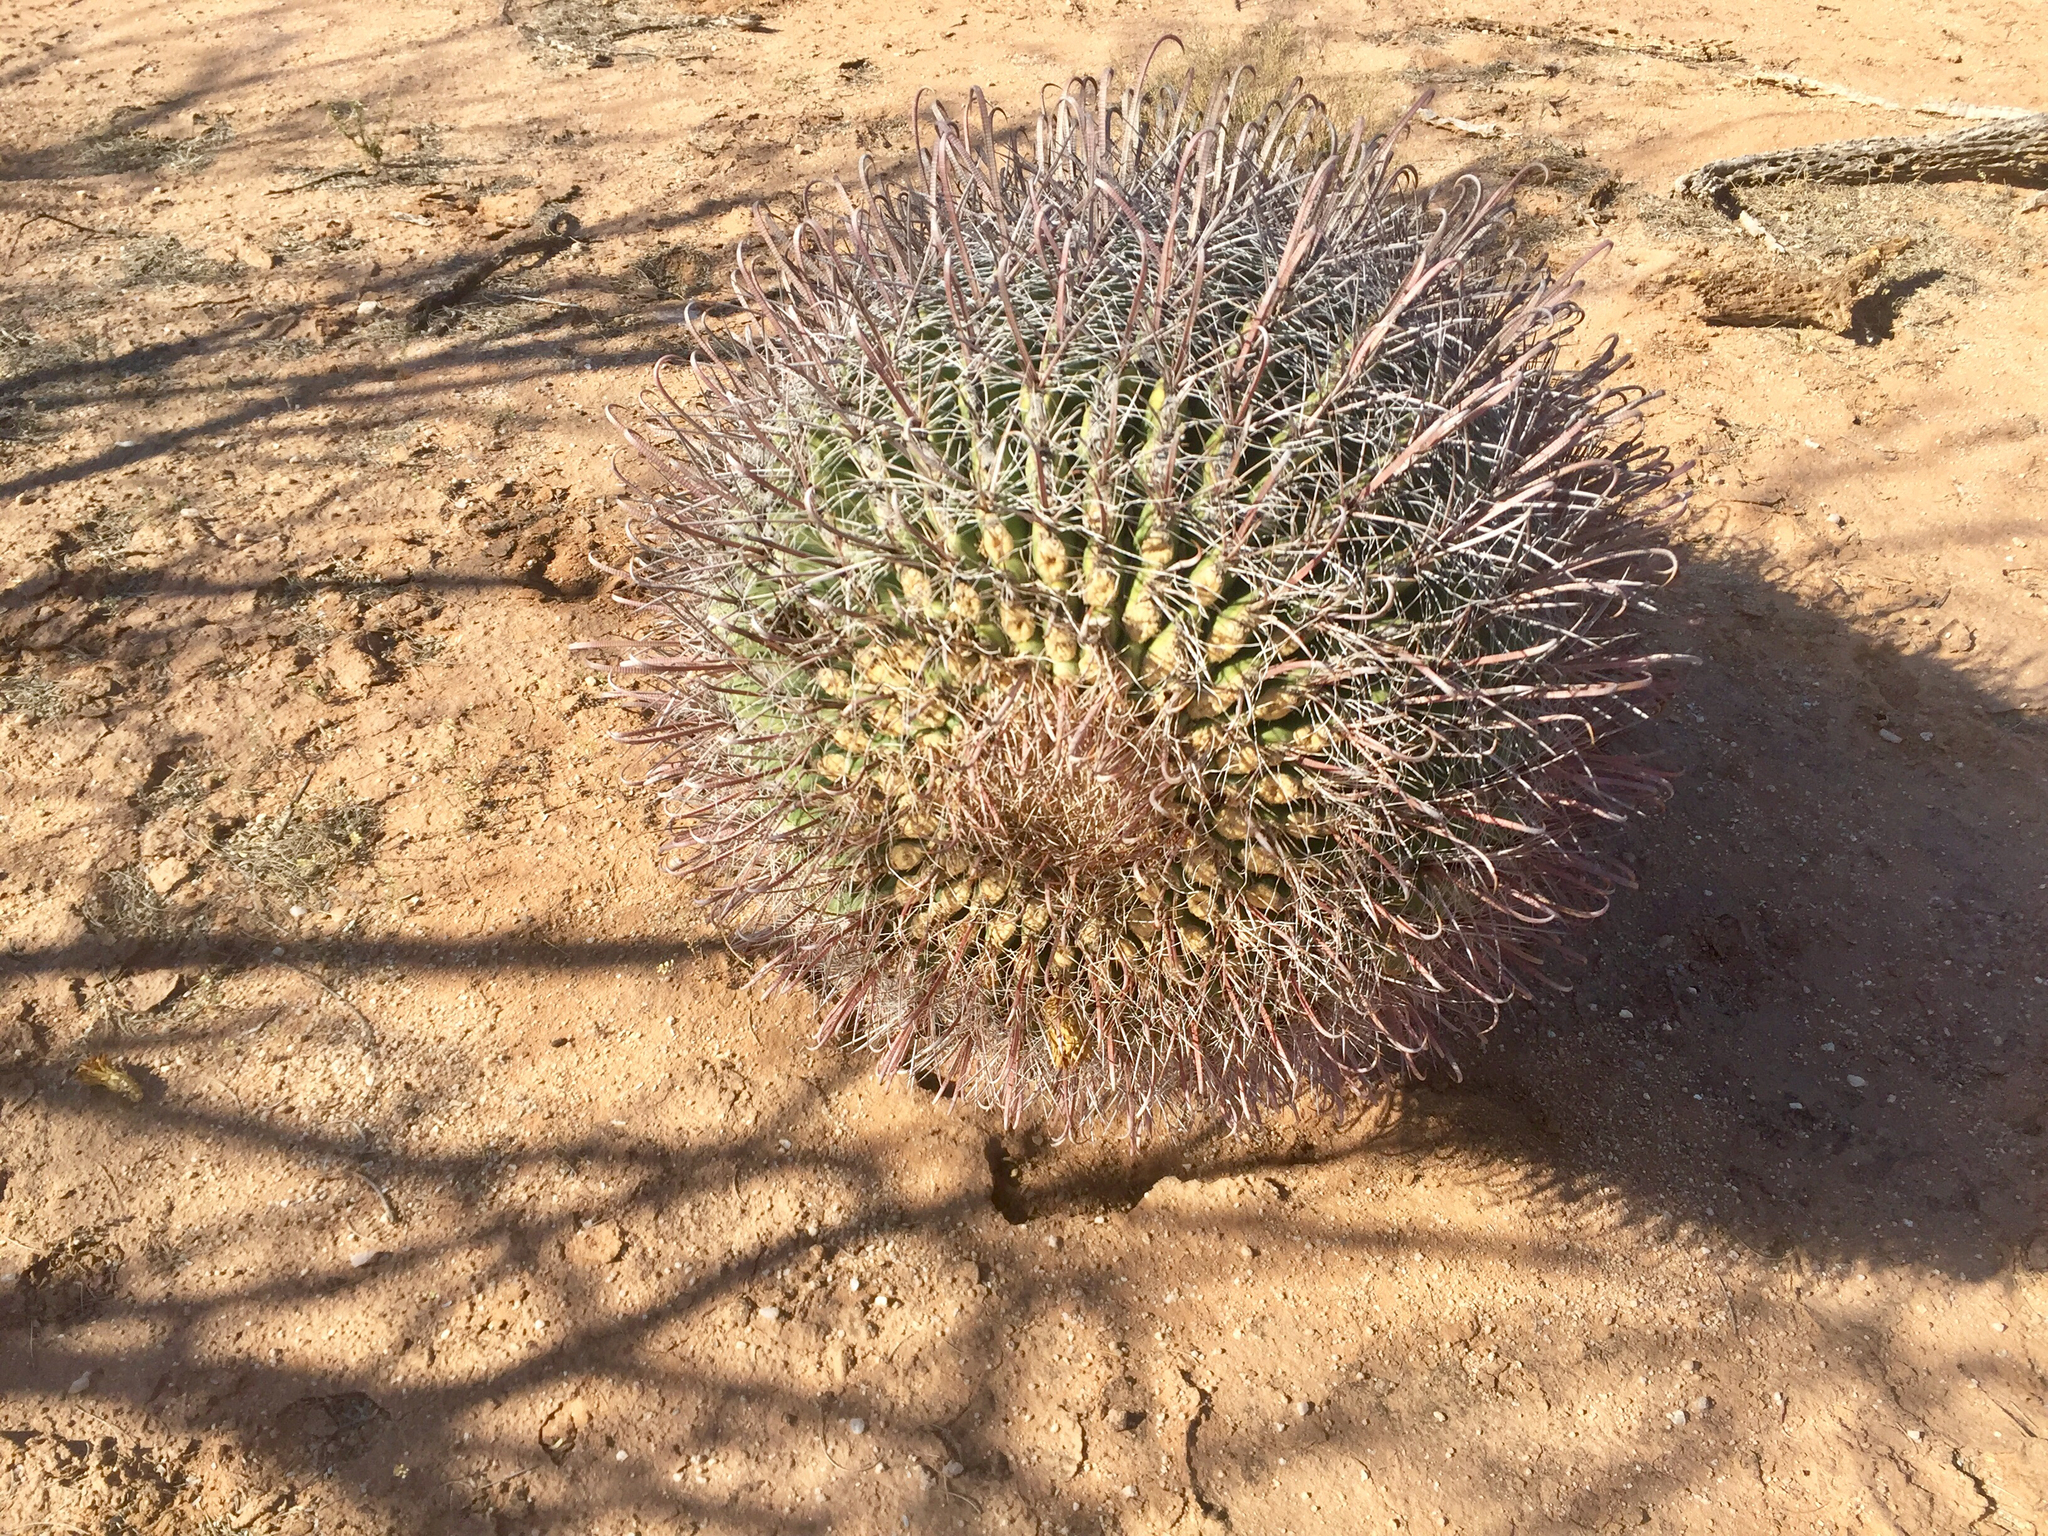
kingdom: Plantae
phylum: Tracheophyta
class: Magnoliopsida
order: Caryophyllales
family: Cactaceae
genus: Ferocactus
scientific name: Ferocactus wislizeni
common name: Candy barrel cactus
